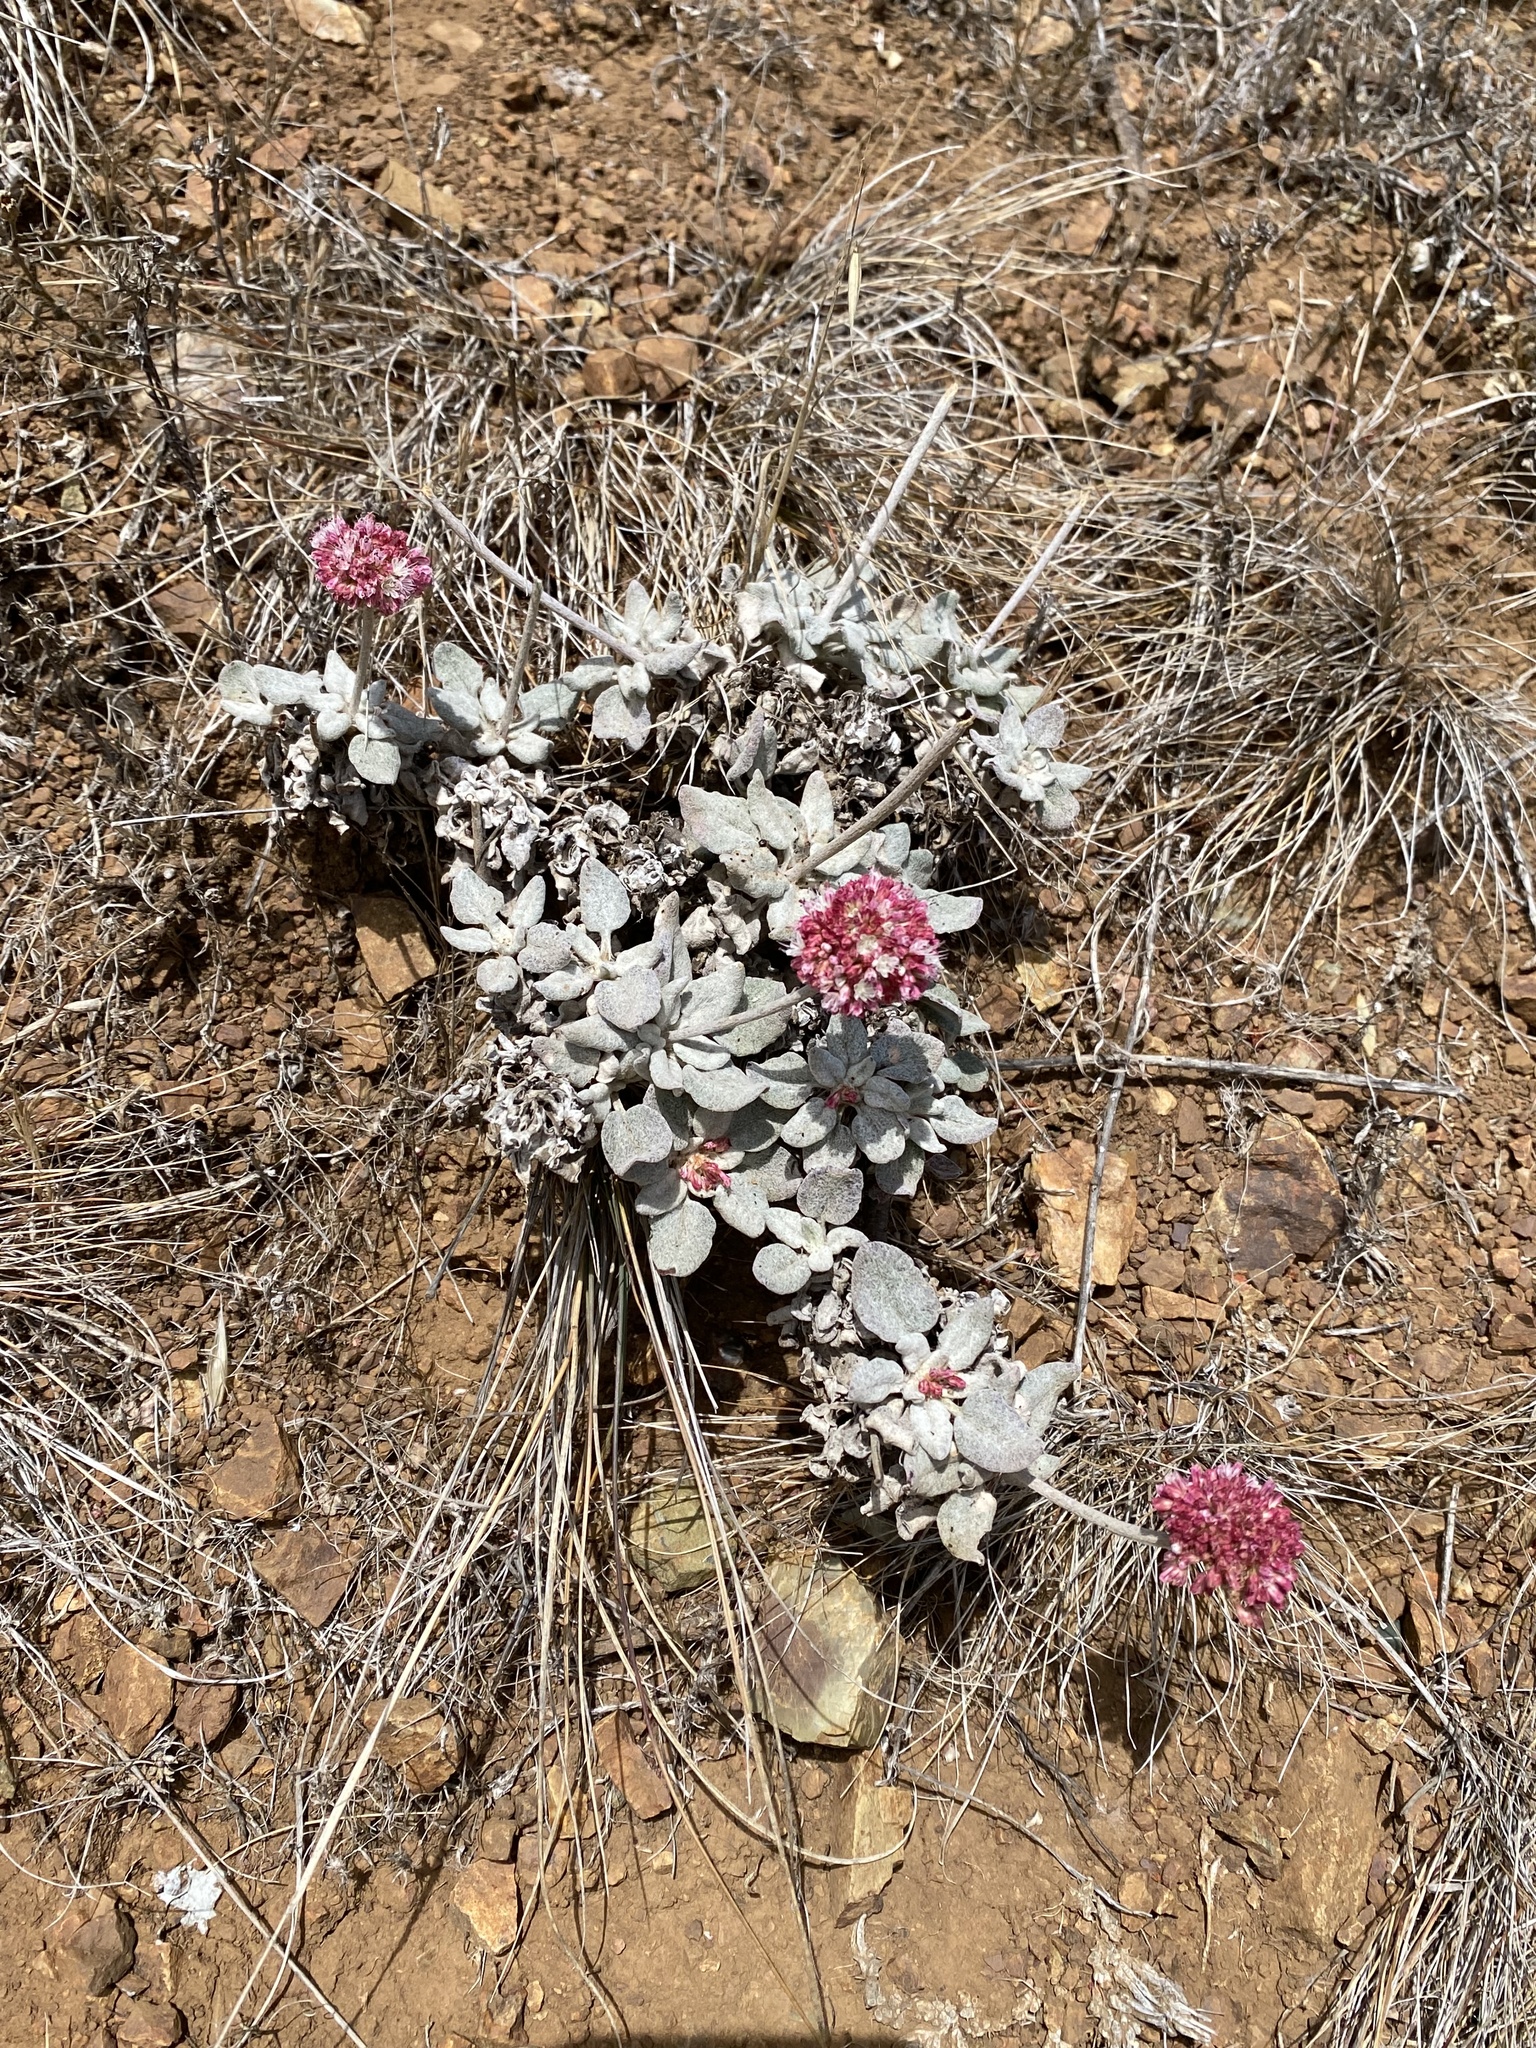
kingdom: Plantae
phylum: Tracheophyta
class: Magnoliopsida
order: Caryophyllales
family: Polygonaceae
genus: Eriogonum
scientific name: Eriogonum latifolium
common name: Seaside wild buckwheat
